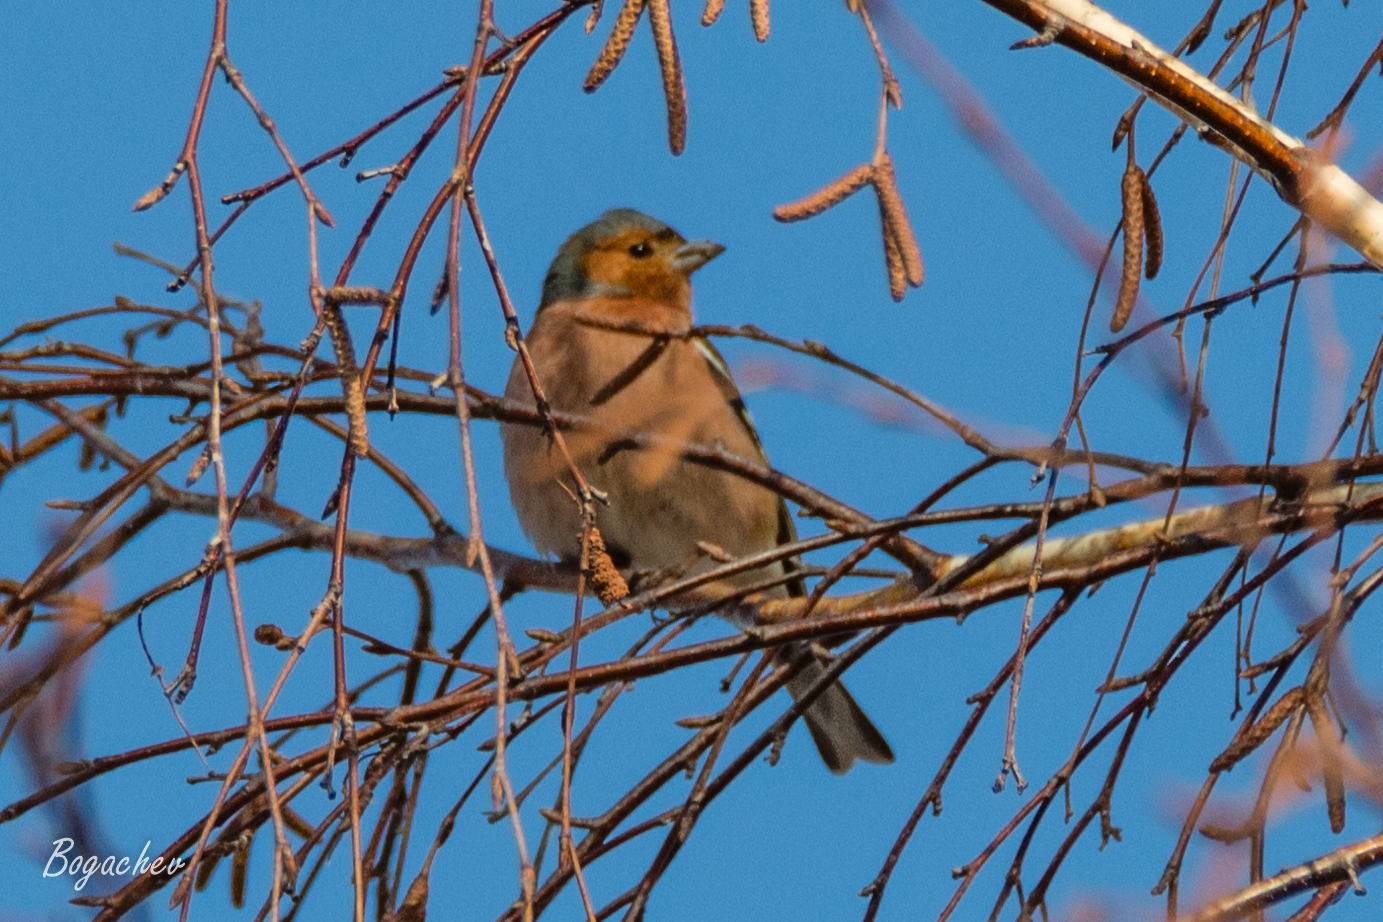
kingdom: Animalia
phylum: Chordata
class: Aves
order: Passeriformes
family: Fringillidae
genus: Fringilla
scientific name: Fringilla coelebs
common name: Common chaffinch
